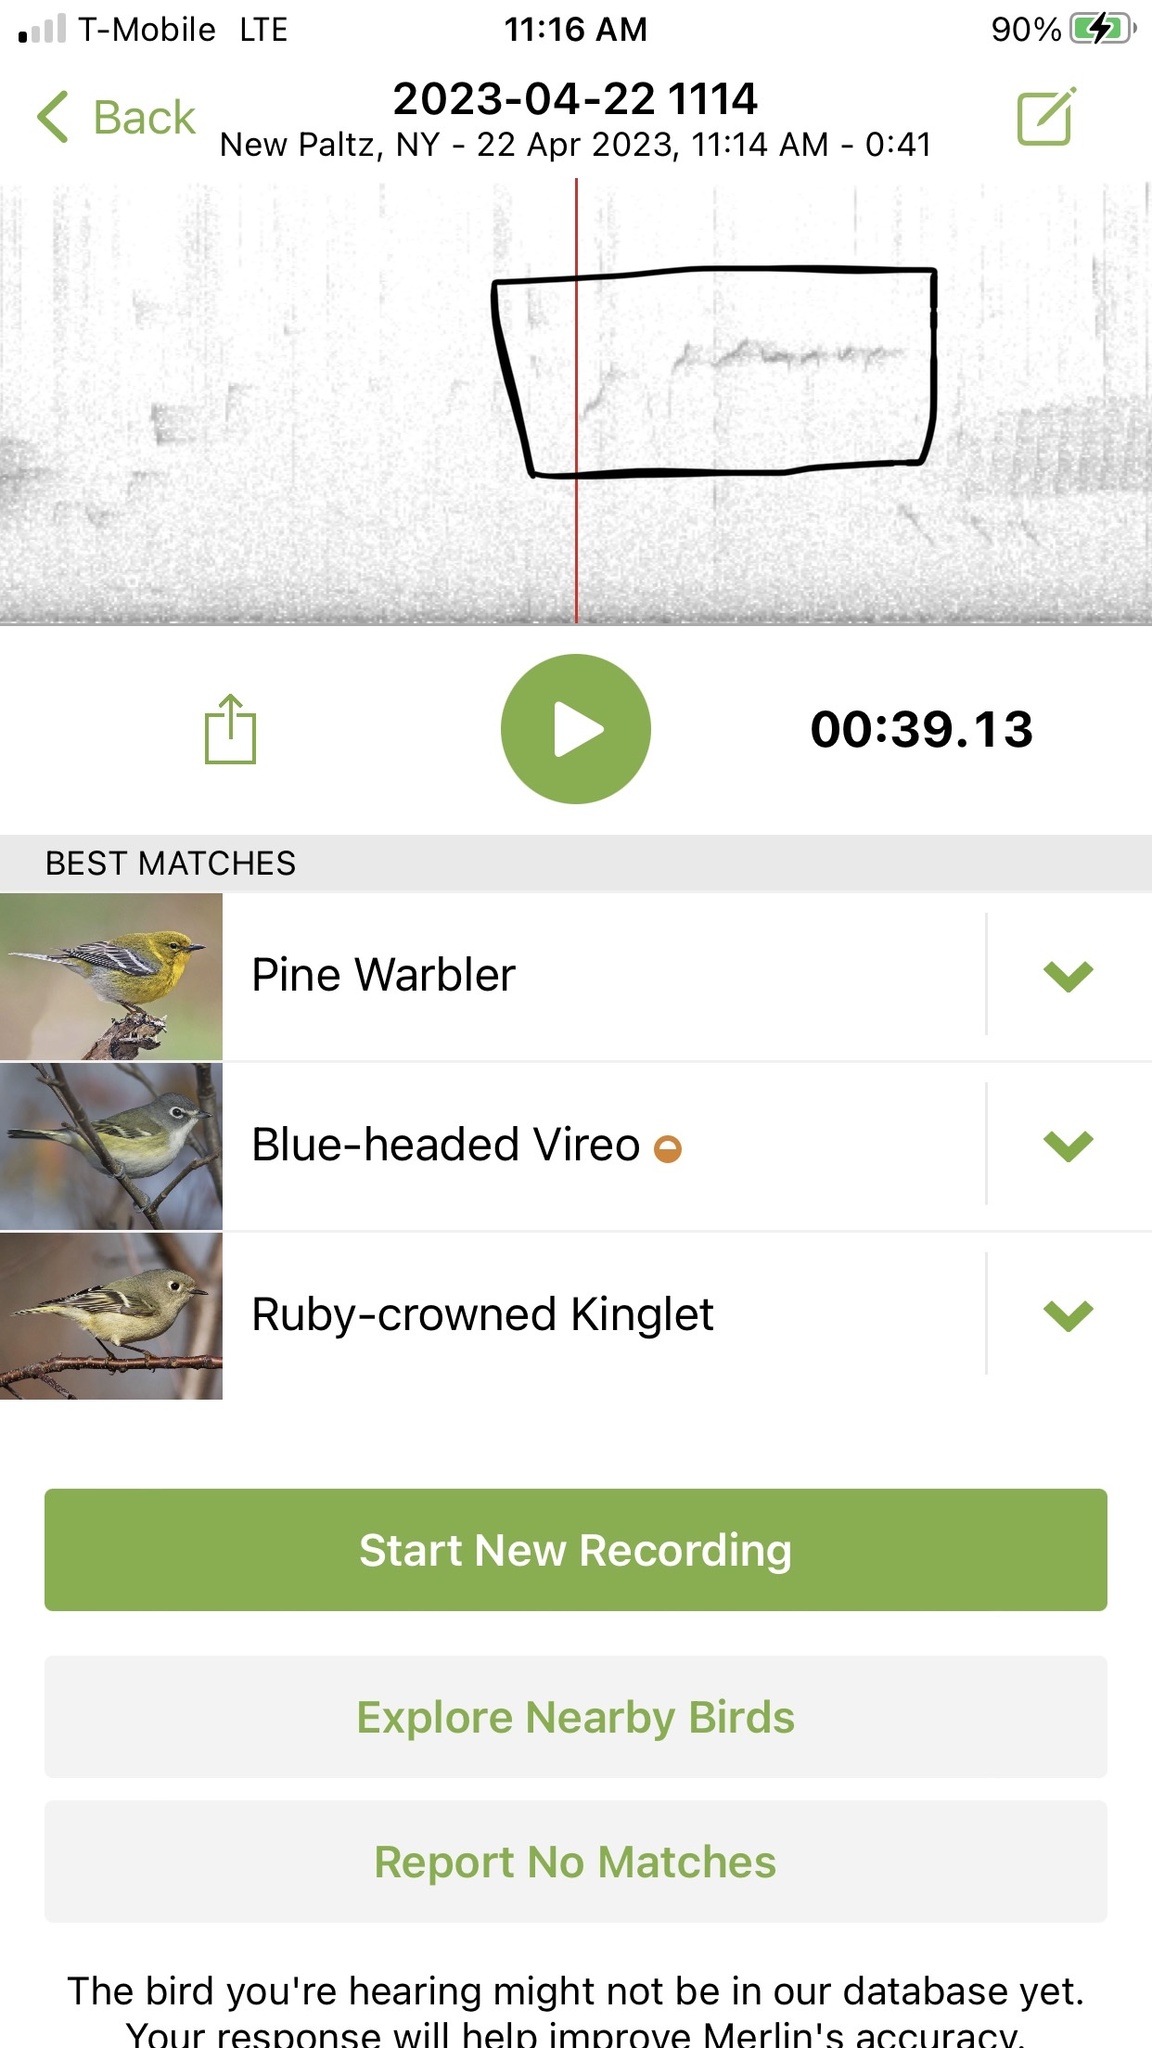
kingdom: Animalia
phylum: Chordata
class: Aves
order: Passeriformes
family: Regulidae
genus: Regulus
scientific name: Regulus calendula
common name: Ruby-crowned kinglet
